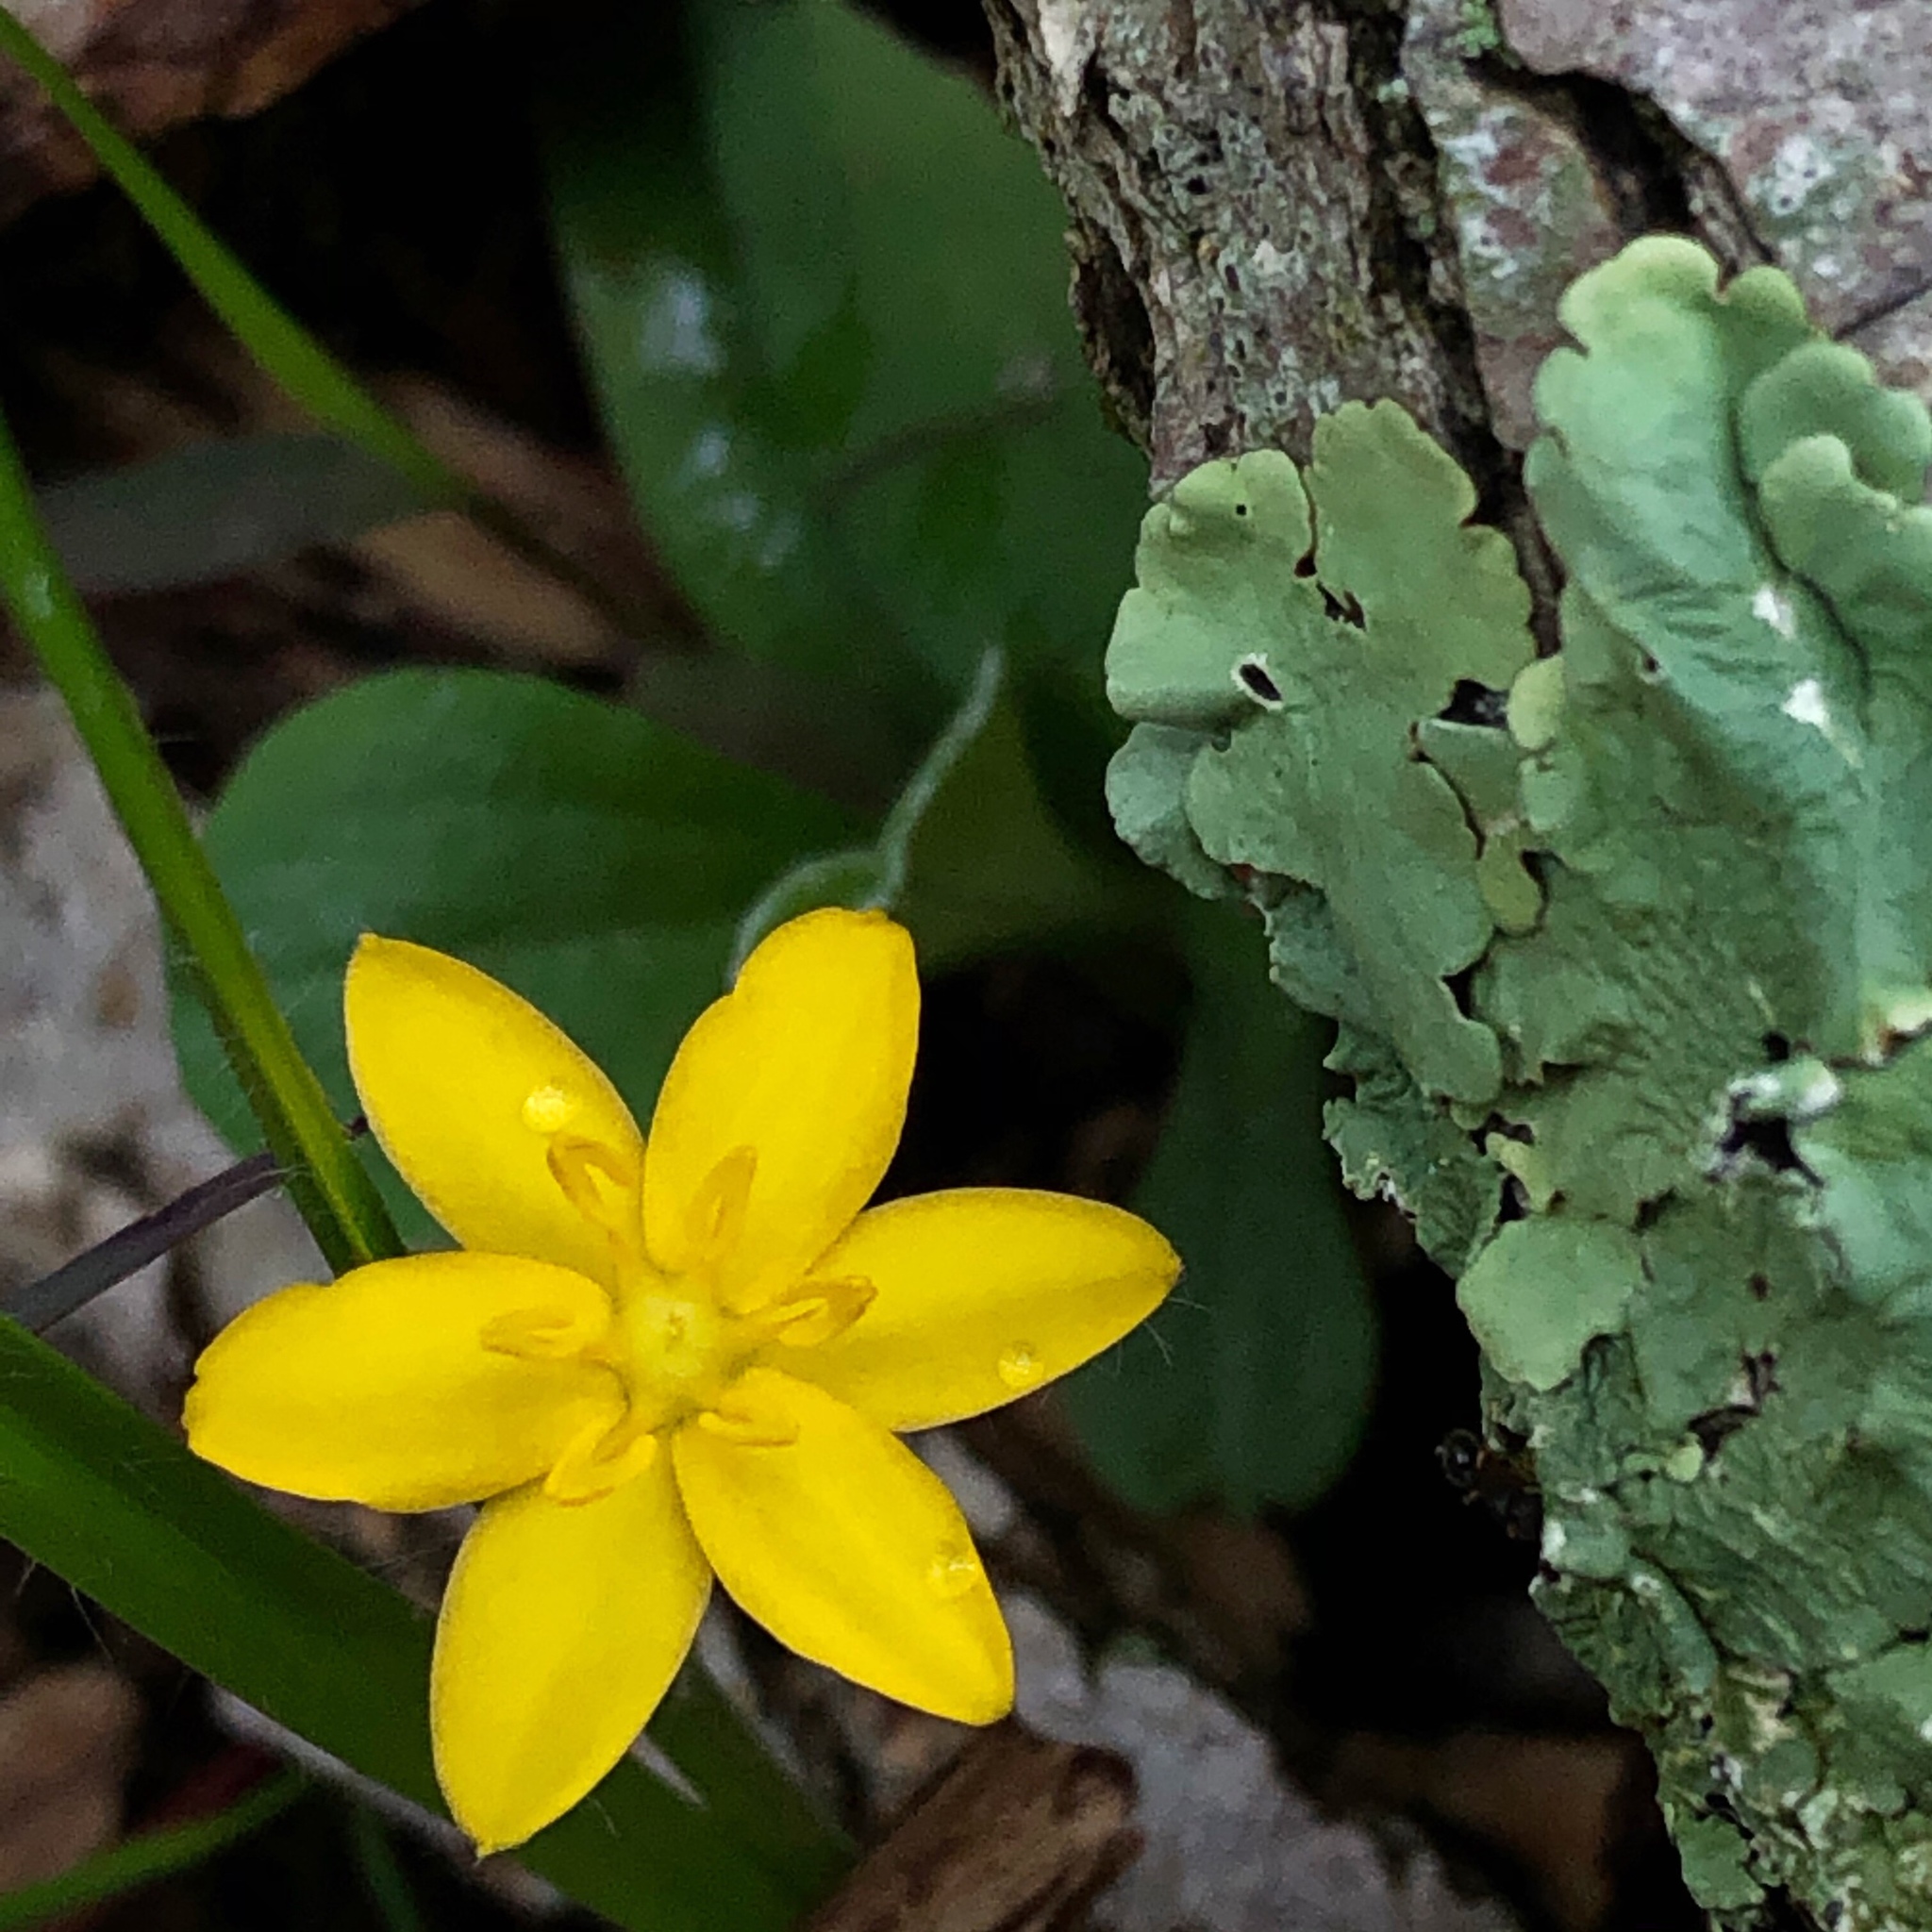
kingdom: Plantae
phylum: Tracheophyta
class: Liliopsida
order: Asparagales
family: Hypoxidaceae
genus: Hypoxis
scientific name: Hypoxis hirsuta
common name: Common goldstar
